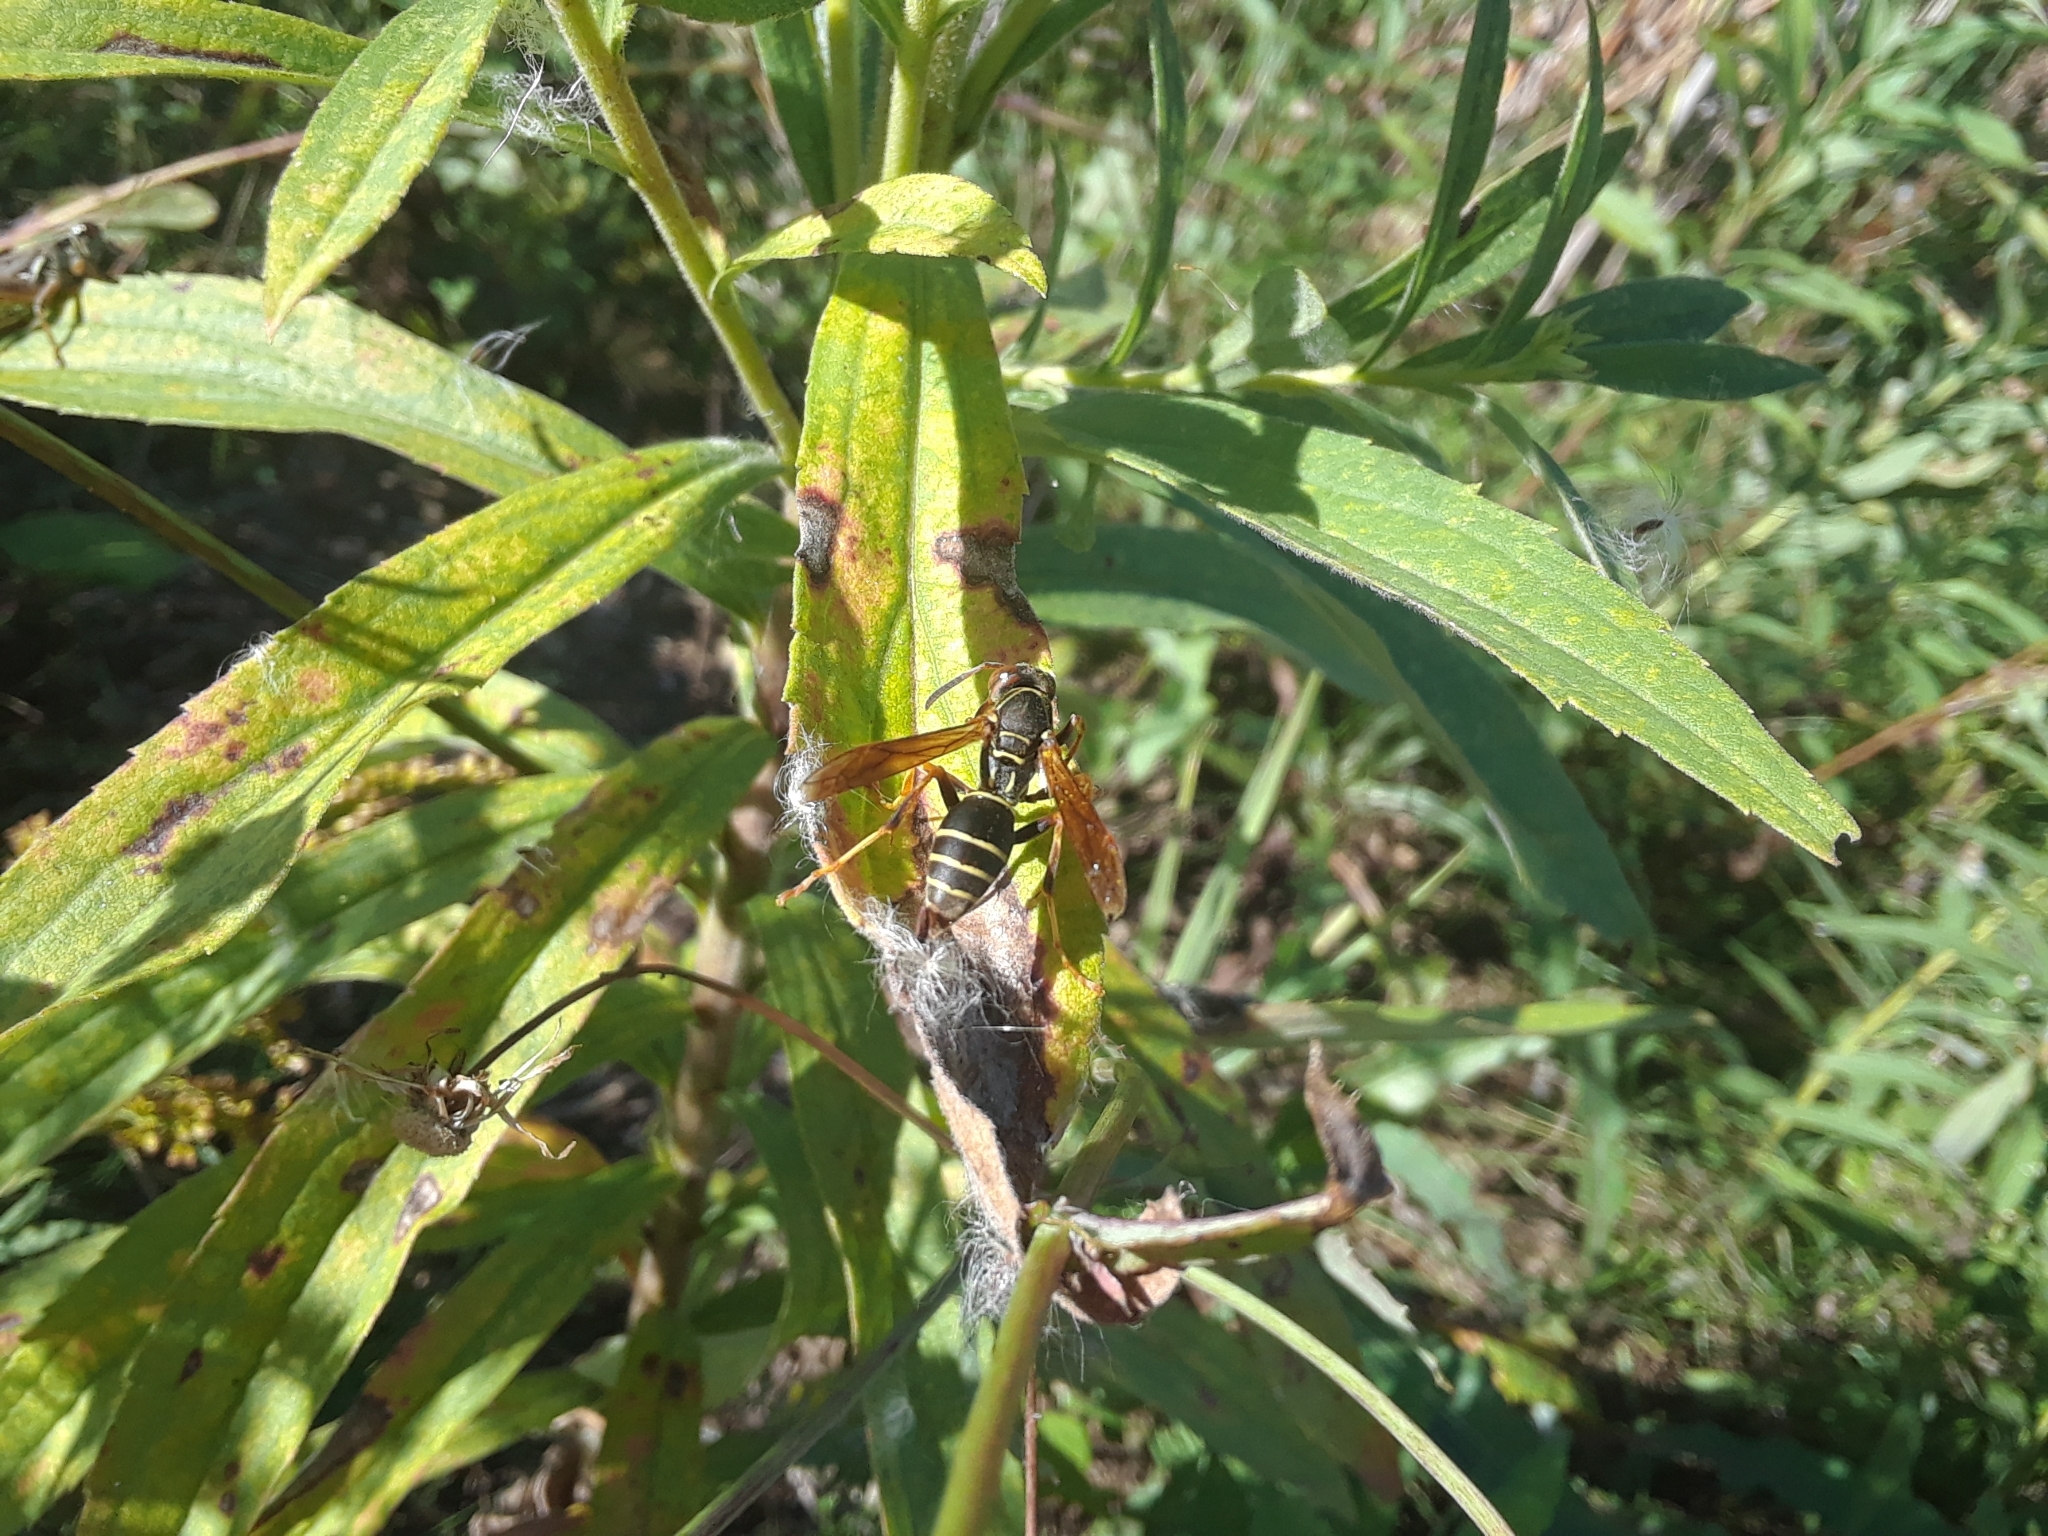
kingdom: Animalia
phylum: Arthropoda
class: Insecta
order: Hymenoptera
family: Eumenidae
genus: Polistes
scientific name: Polistes fuscatus
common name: Dark paper wasp
